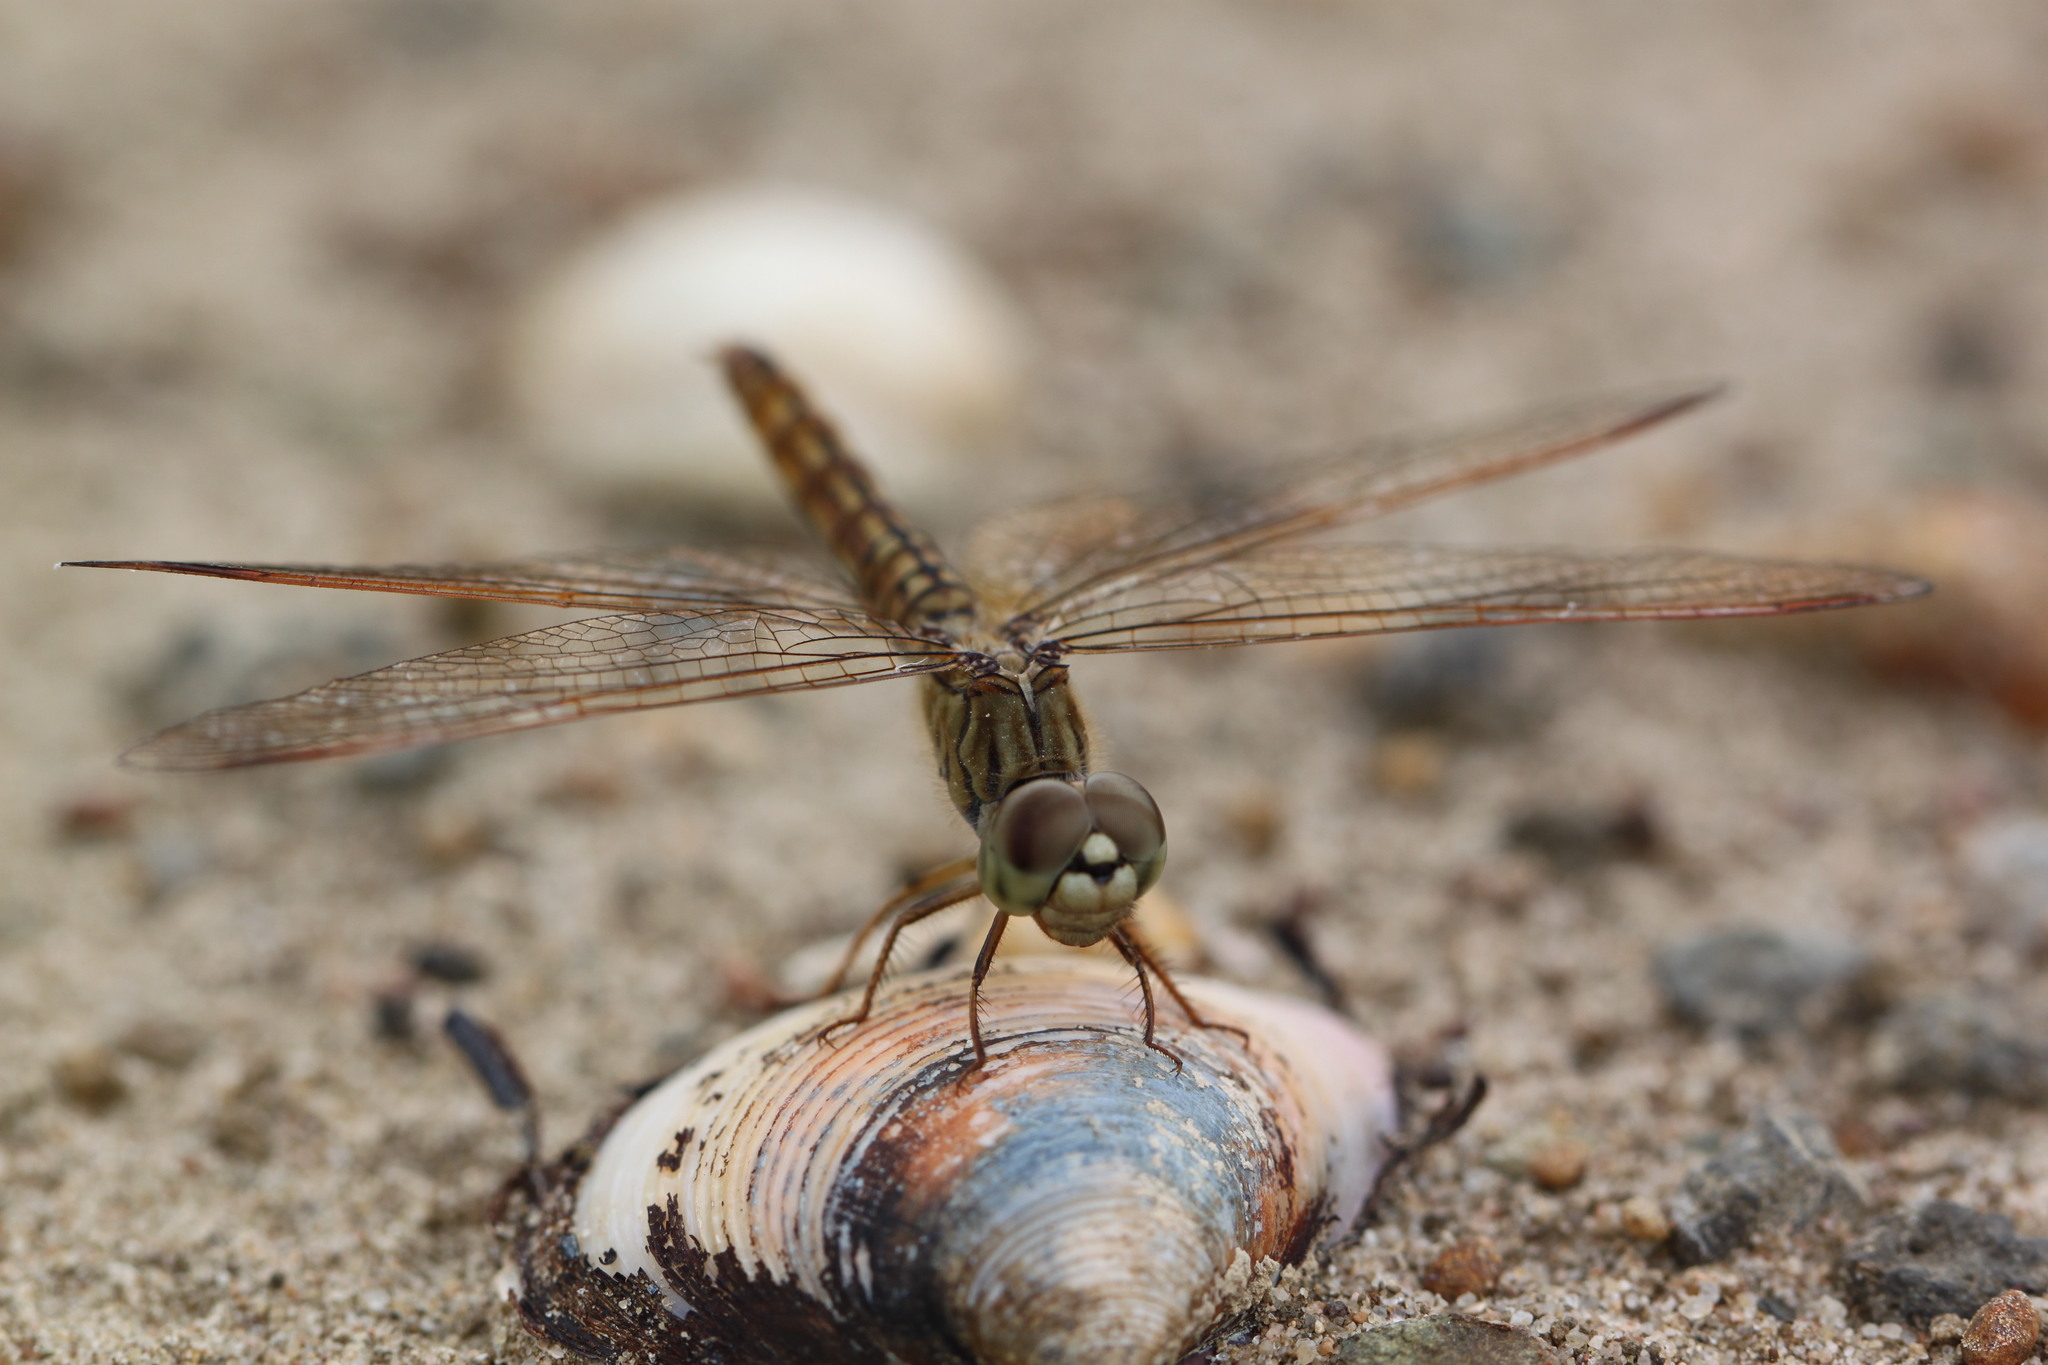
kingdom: Animalia
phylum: Arthropoda
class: Insecta
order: Odonata
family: Libellulidae
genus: Brachythemis
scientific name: Brachythemis contaminata
